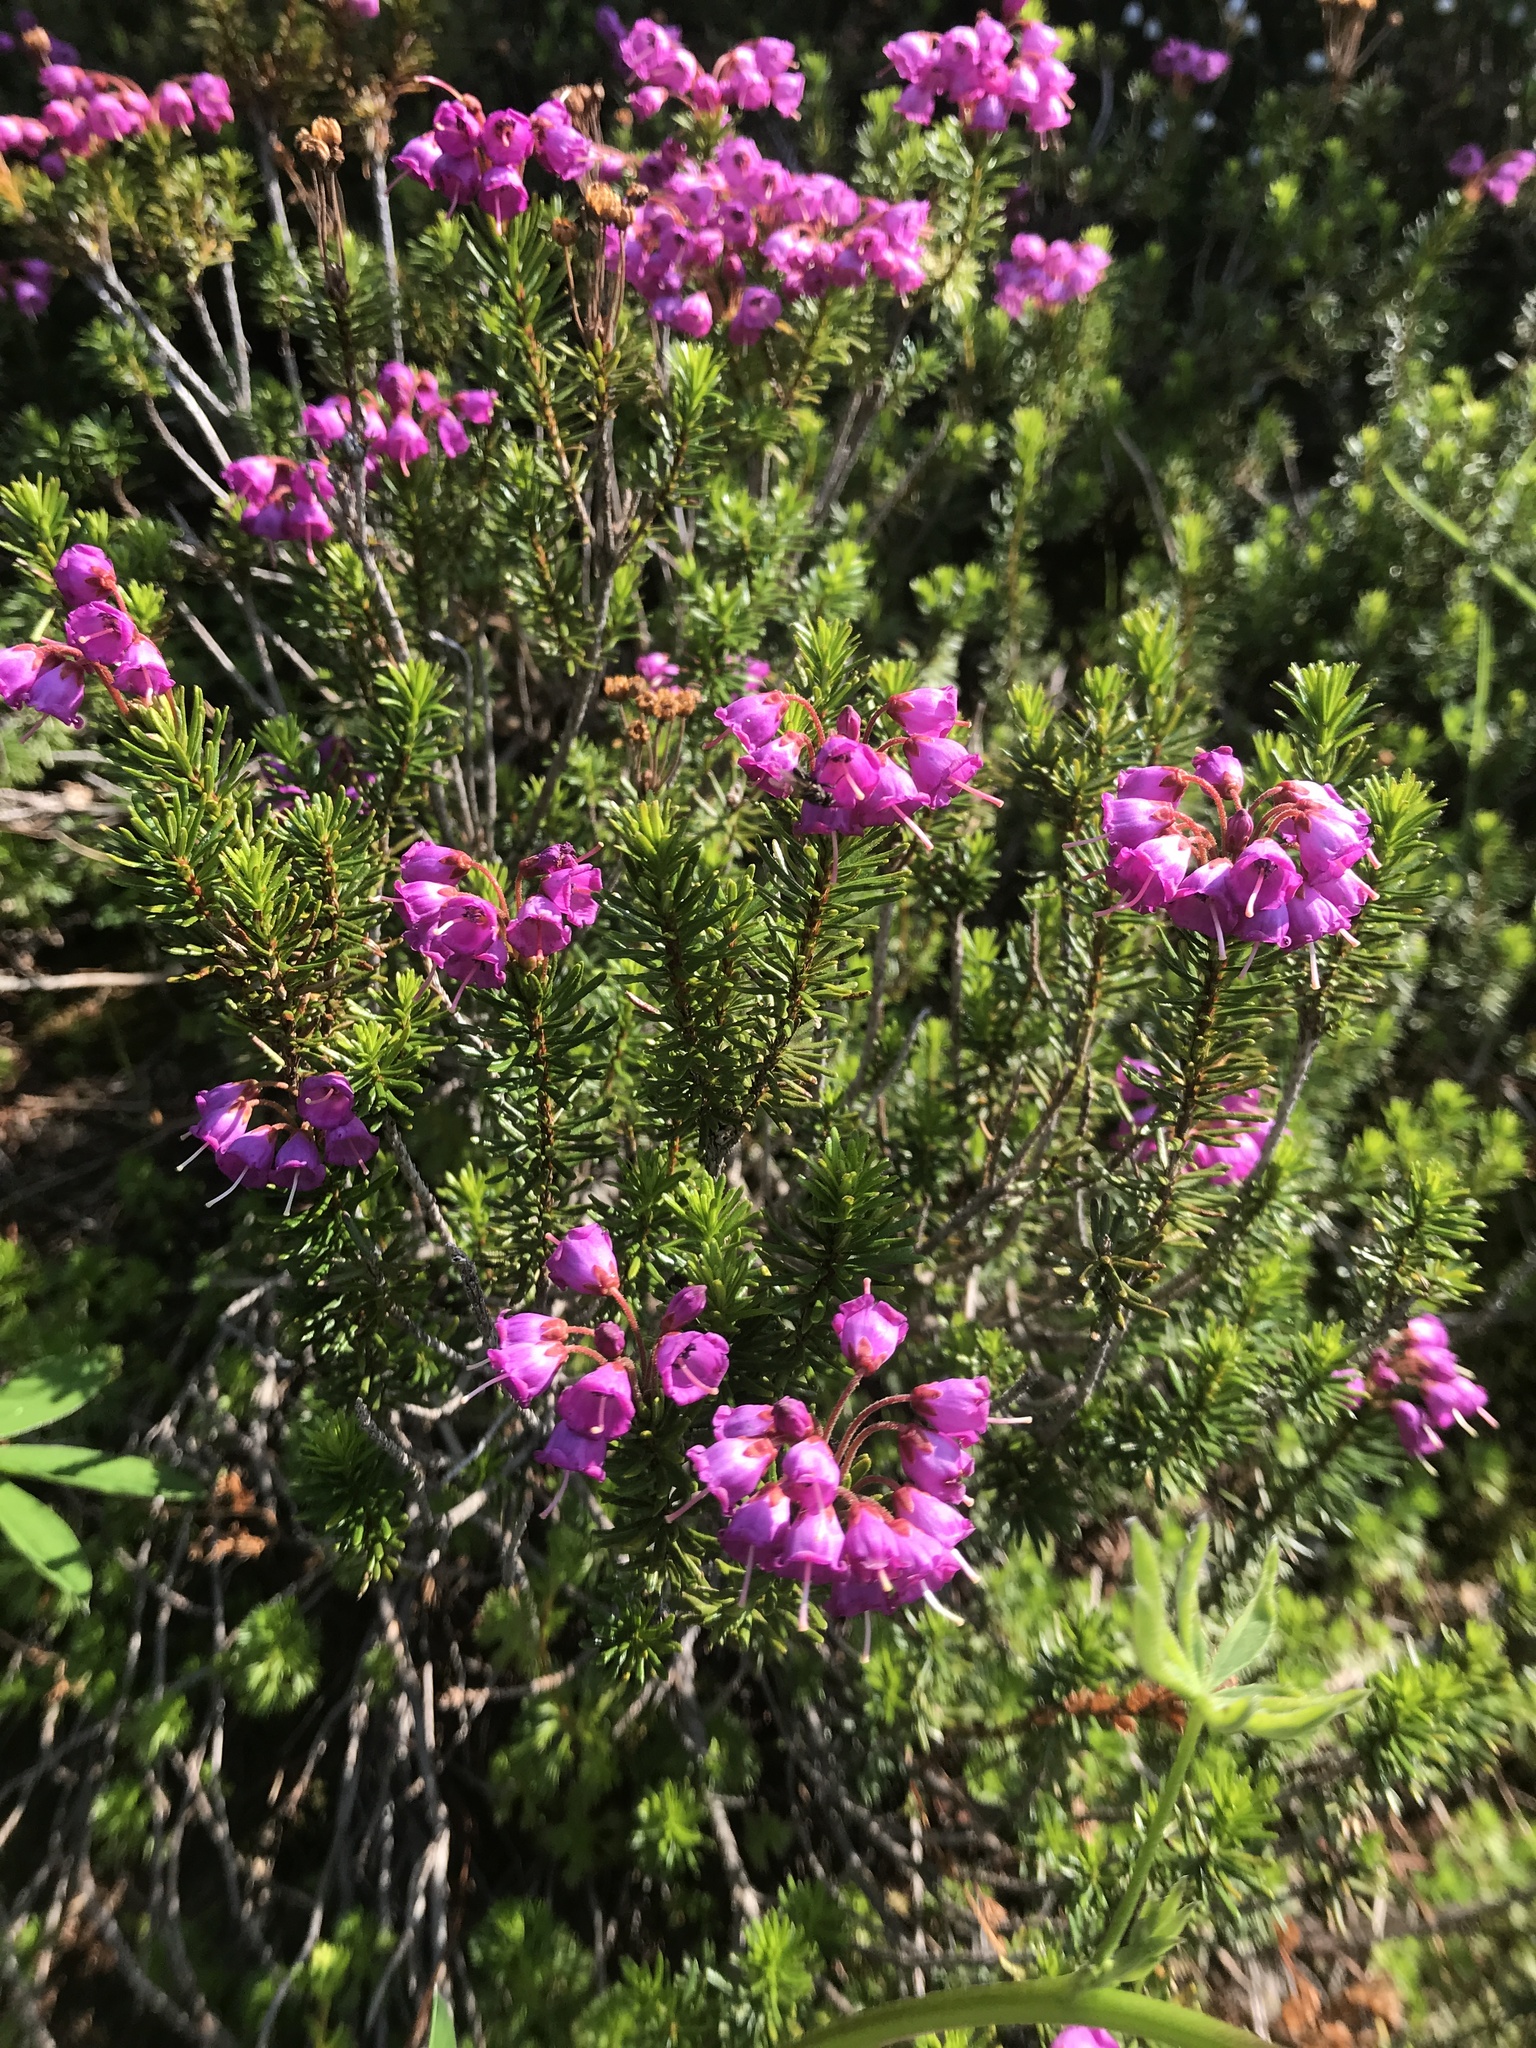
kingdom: Plantae
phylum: Tracheophyta
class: Magnoliopsida
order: Ericales
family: Ericaceae
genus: Phyllodoce
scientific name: Phyllodoce empetriformis
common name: Pink mountain heather
